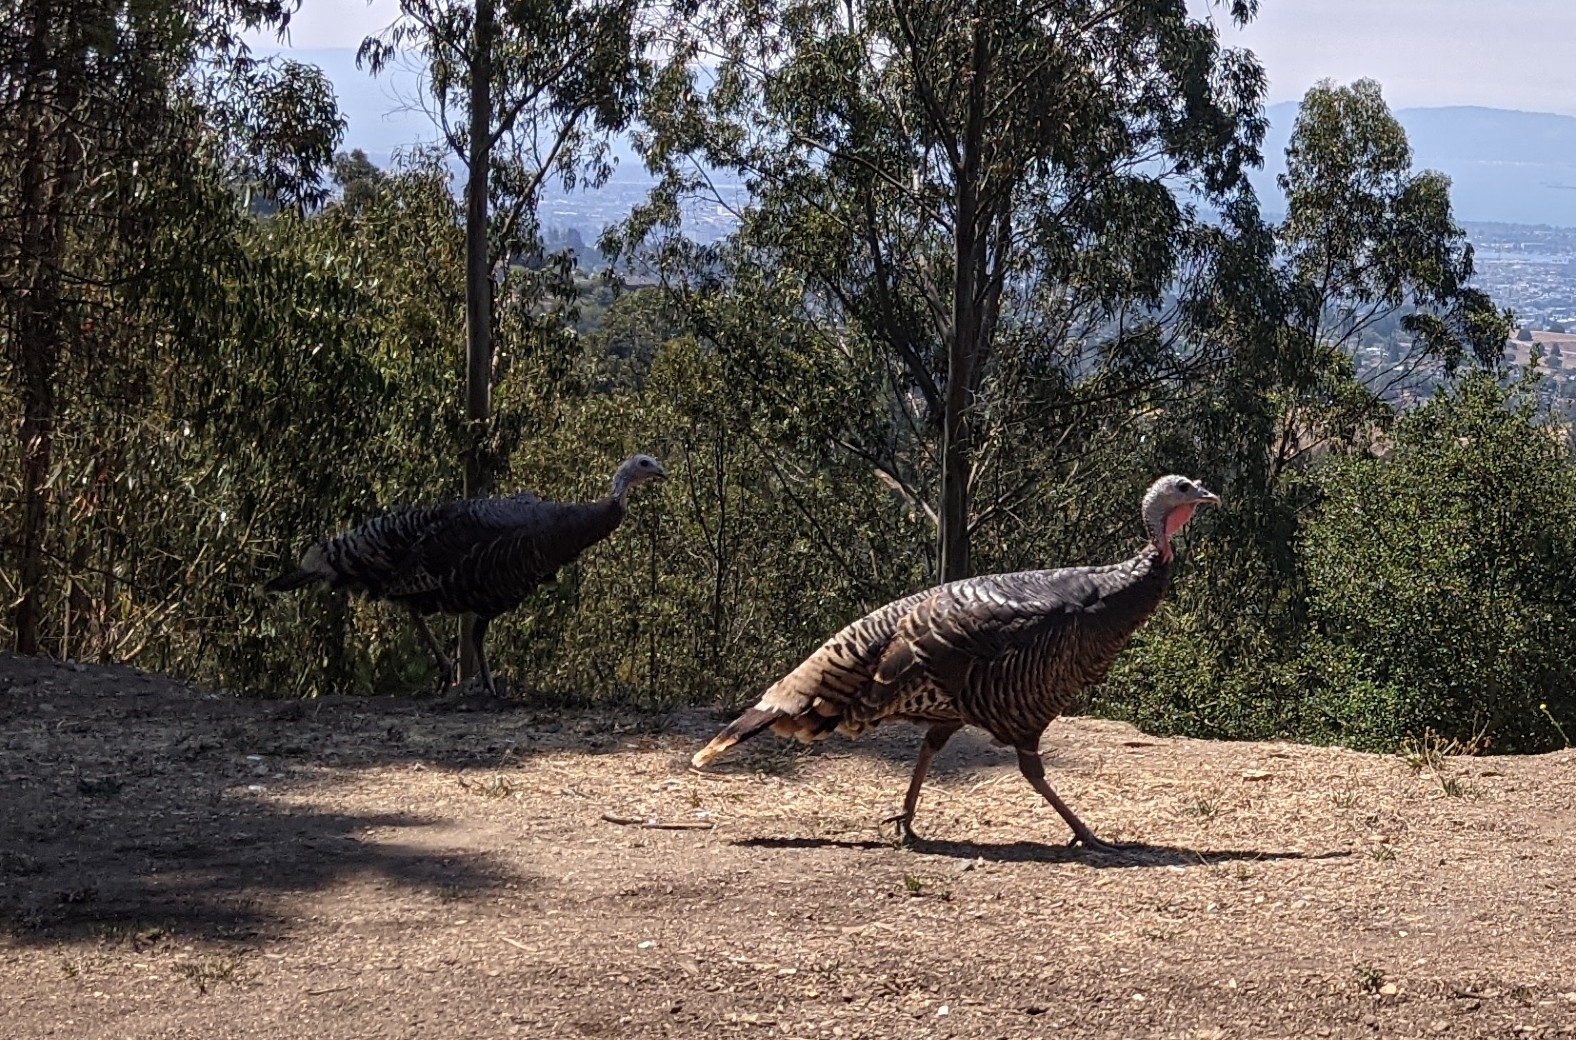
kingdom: Animalia
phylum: Chordata
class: Aves
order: Galliformes
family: Phasianidae
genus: Meleagris
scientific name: Meleagris gallopavo
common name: Wild turkey
